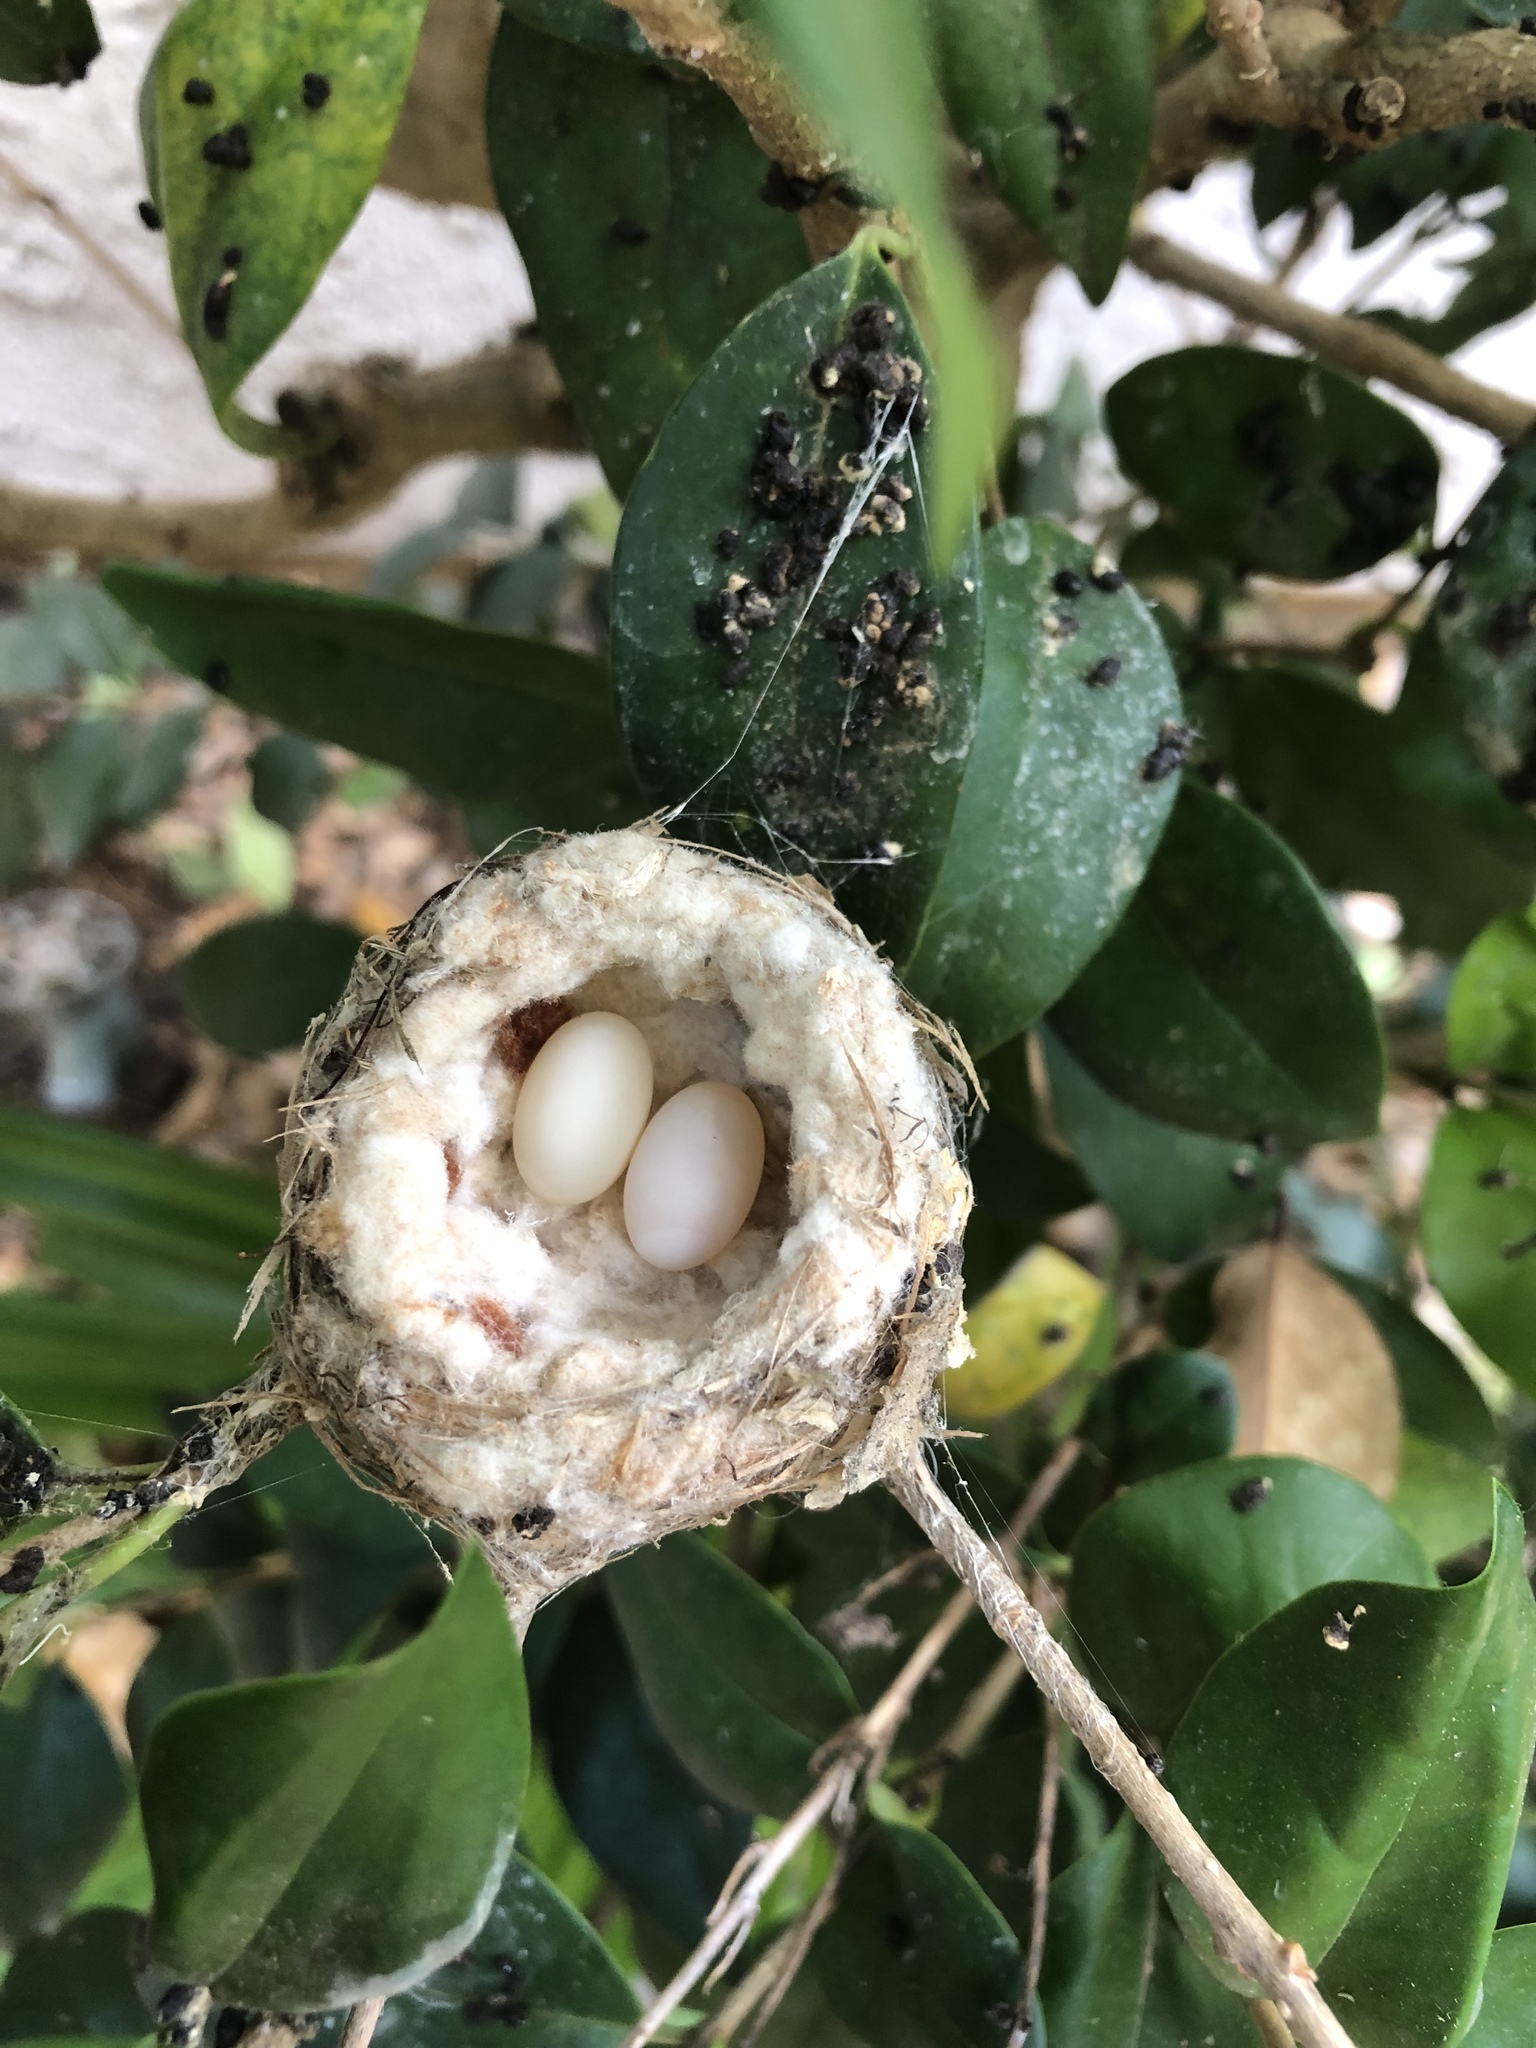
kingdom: Animalia
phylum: Chordata
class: Aves
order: Apodiformes
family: Trochilidae
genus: Calypte
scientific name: Calypte anna
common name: Anna's hummingbird
